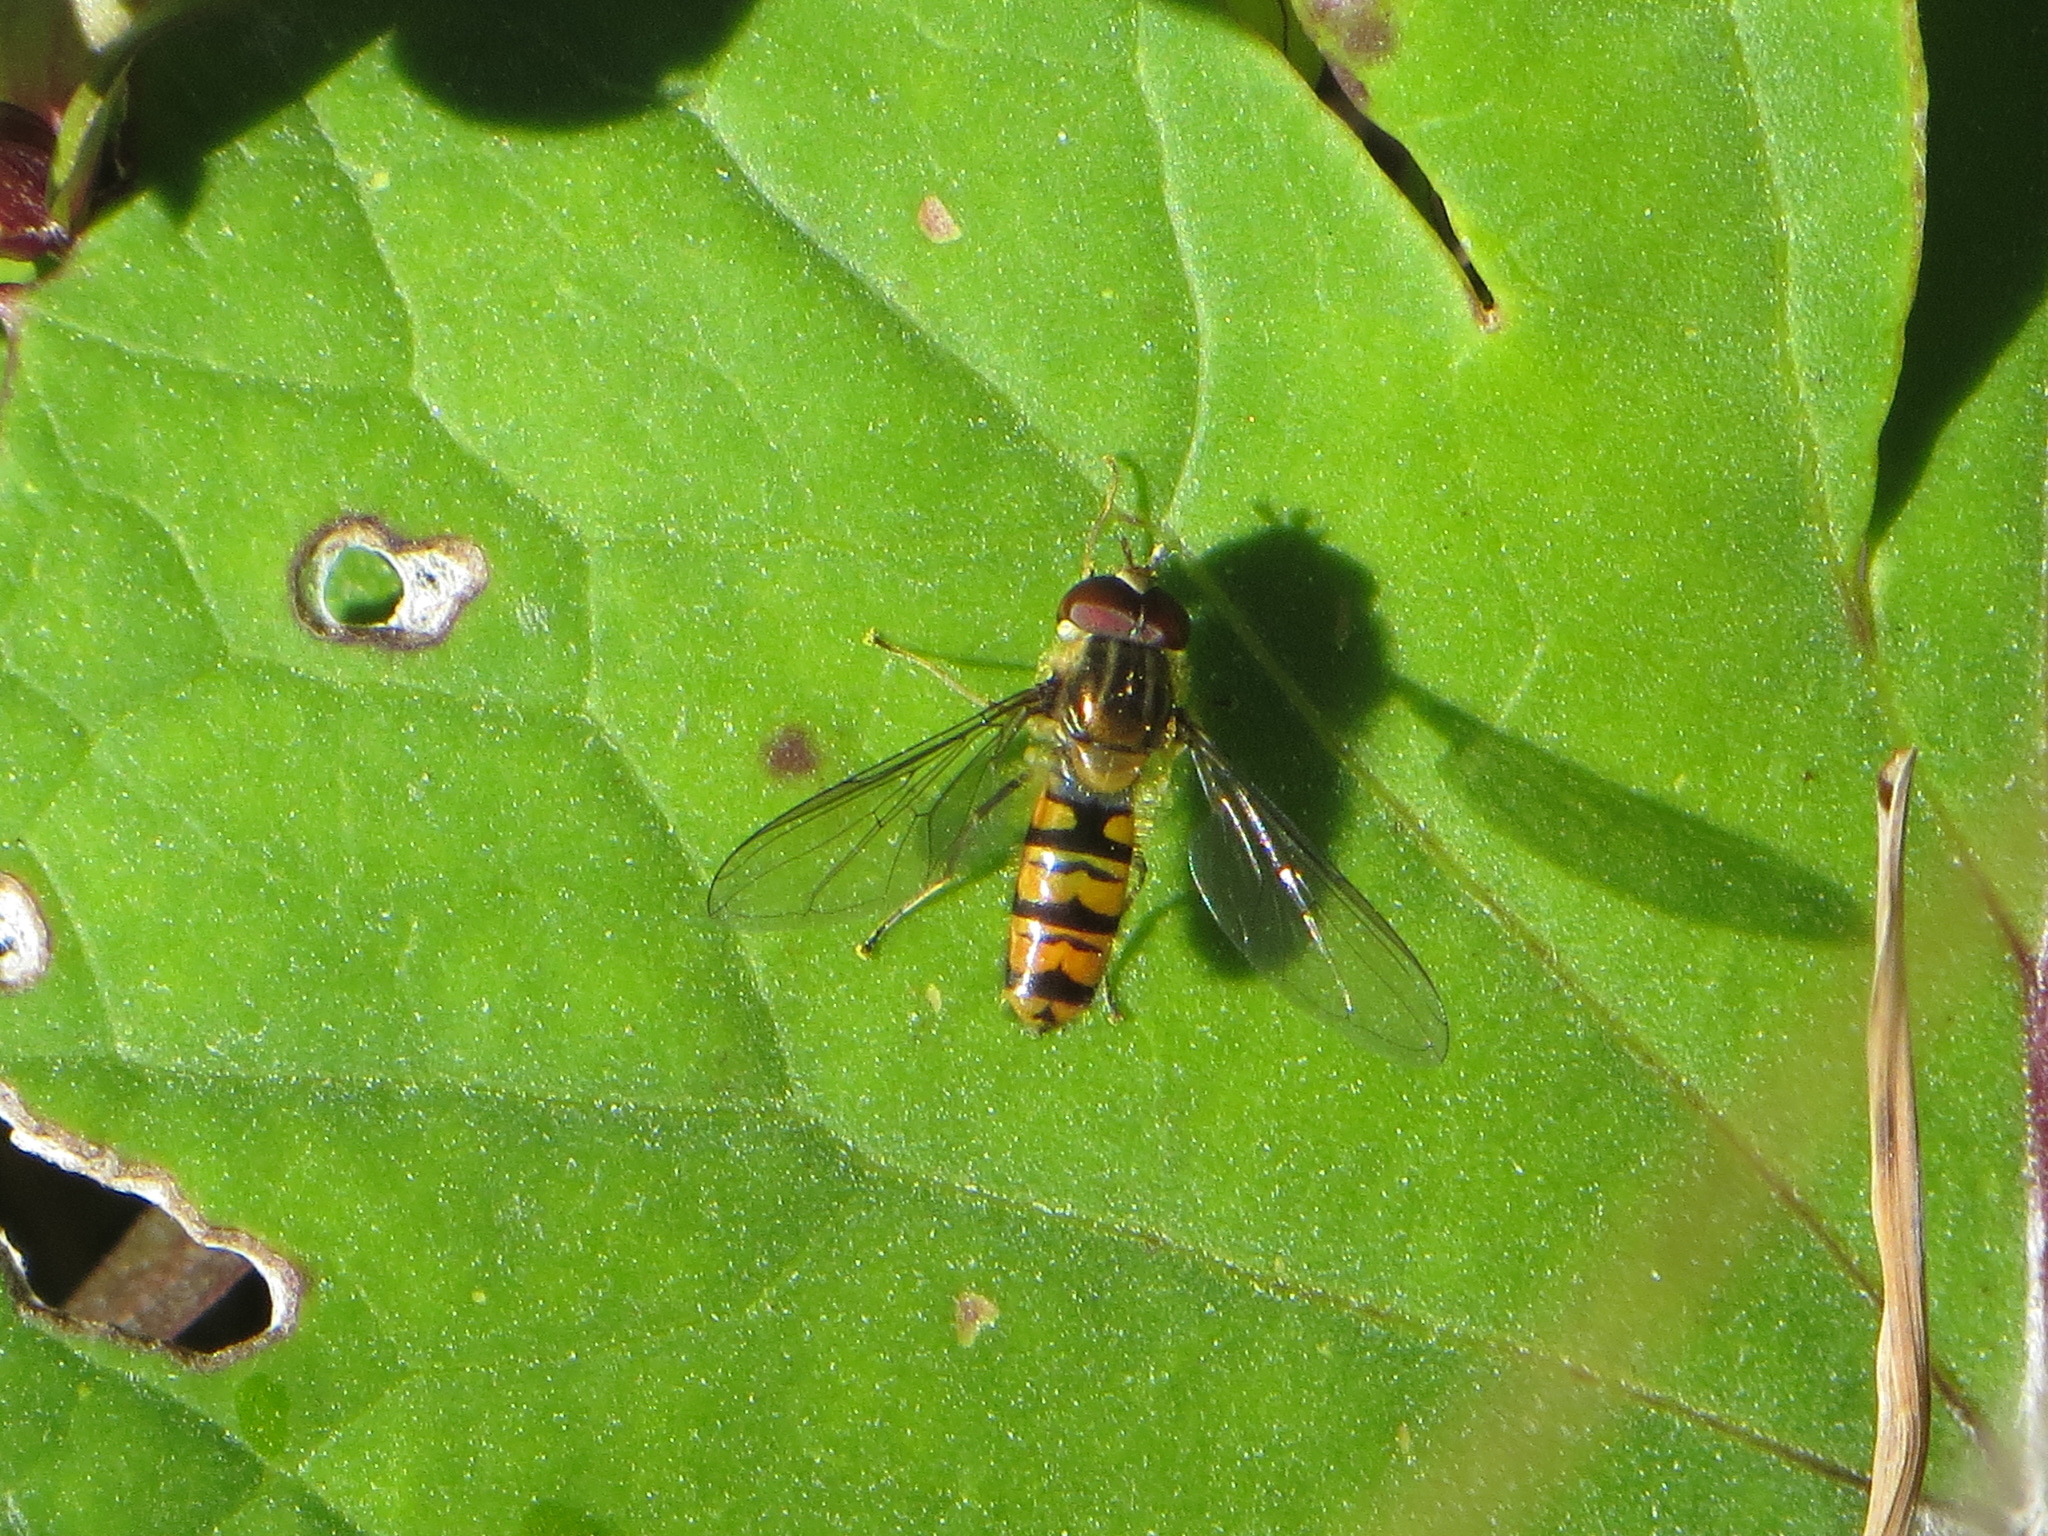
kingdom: Animalia
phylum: Arthropoda
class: Insecta
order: Diptera
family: Syrphidae
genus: Episyrphus
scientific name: Episyrphus balteatus
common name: Marmalade hoverfly
